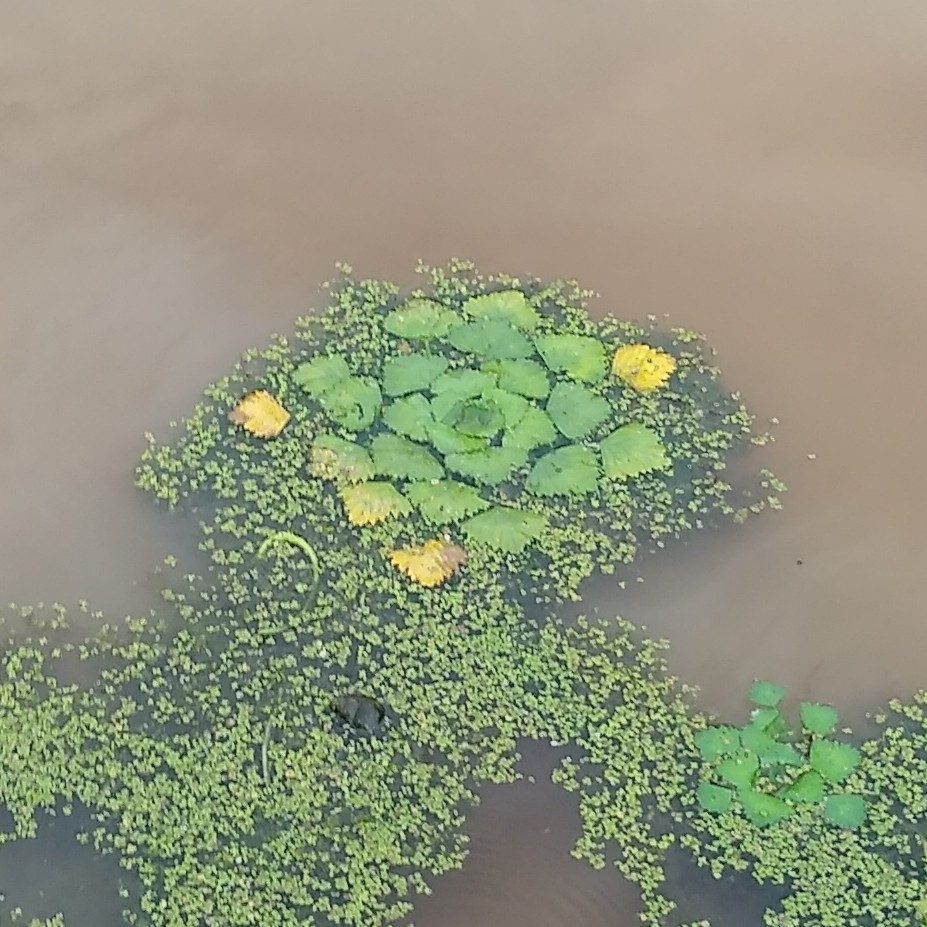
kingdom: Plantae
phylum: Tracheophyta
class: Magnoliopsida
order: Myrtales
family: Lythraceae
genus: Trapa
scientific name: Trapa natans
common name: Water chestnut
